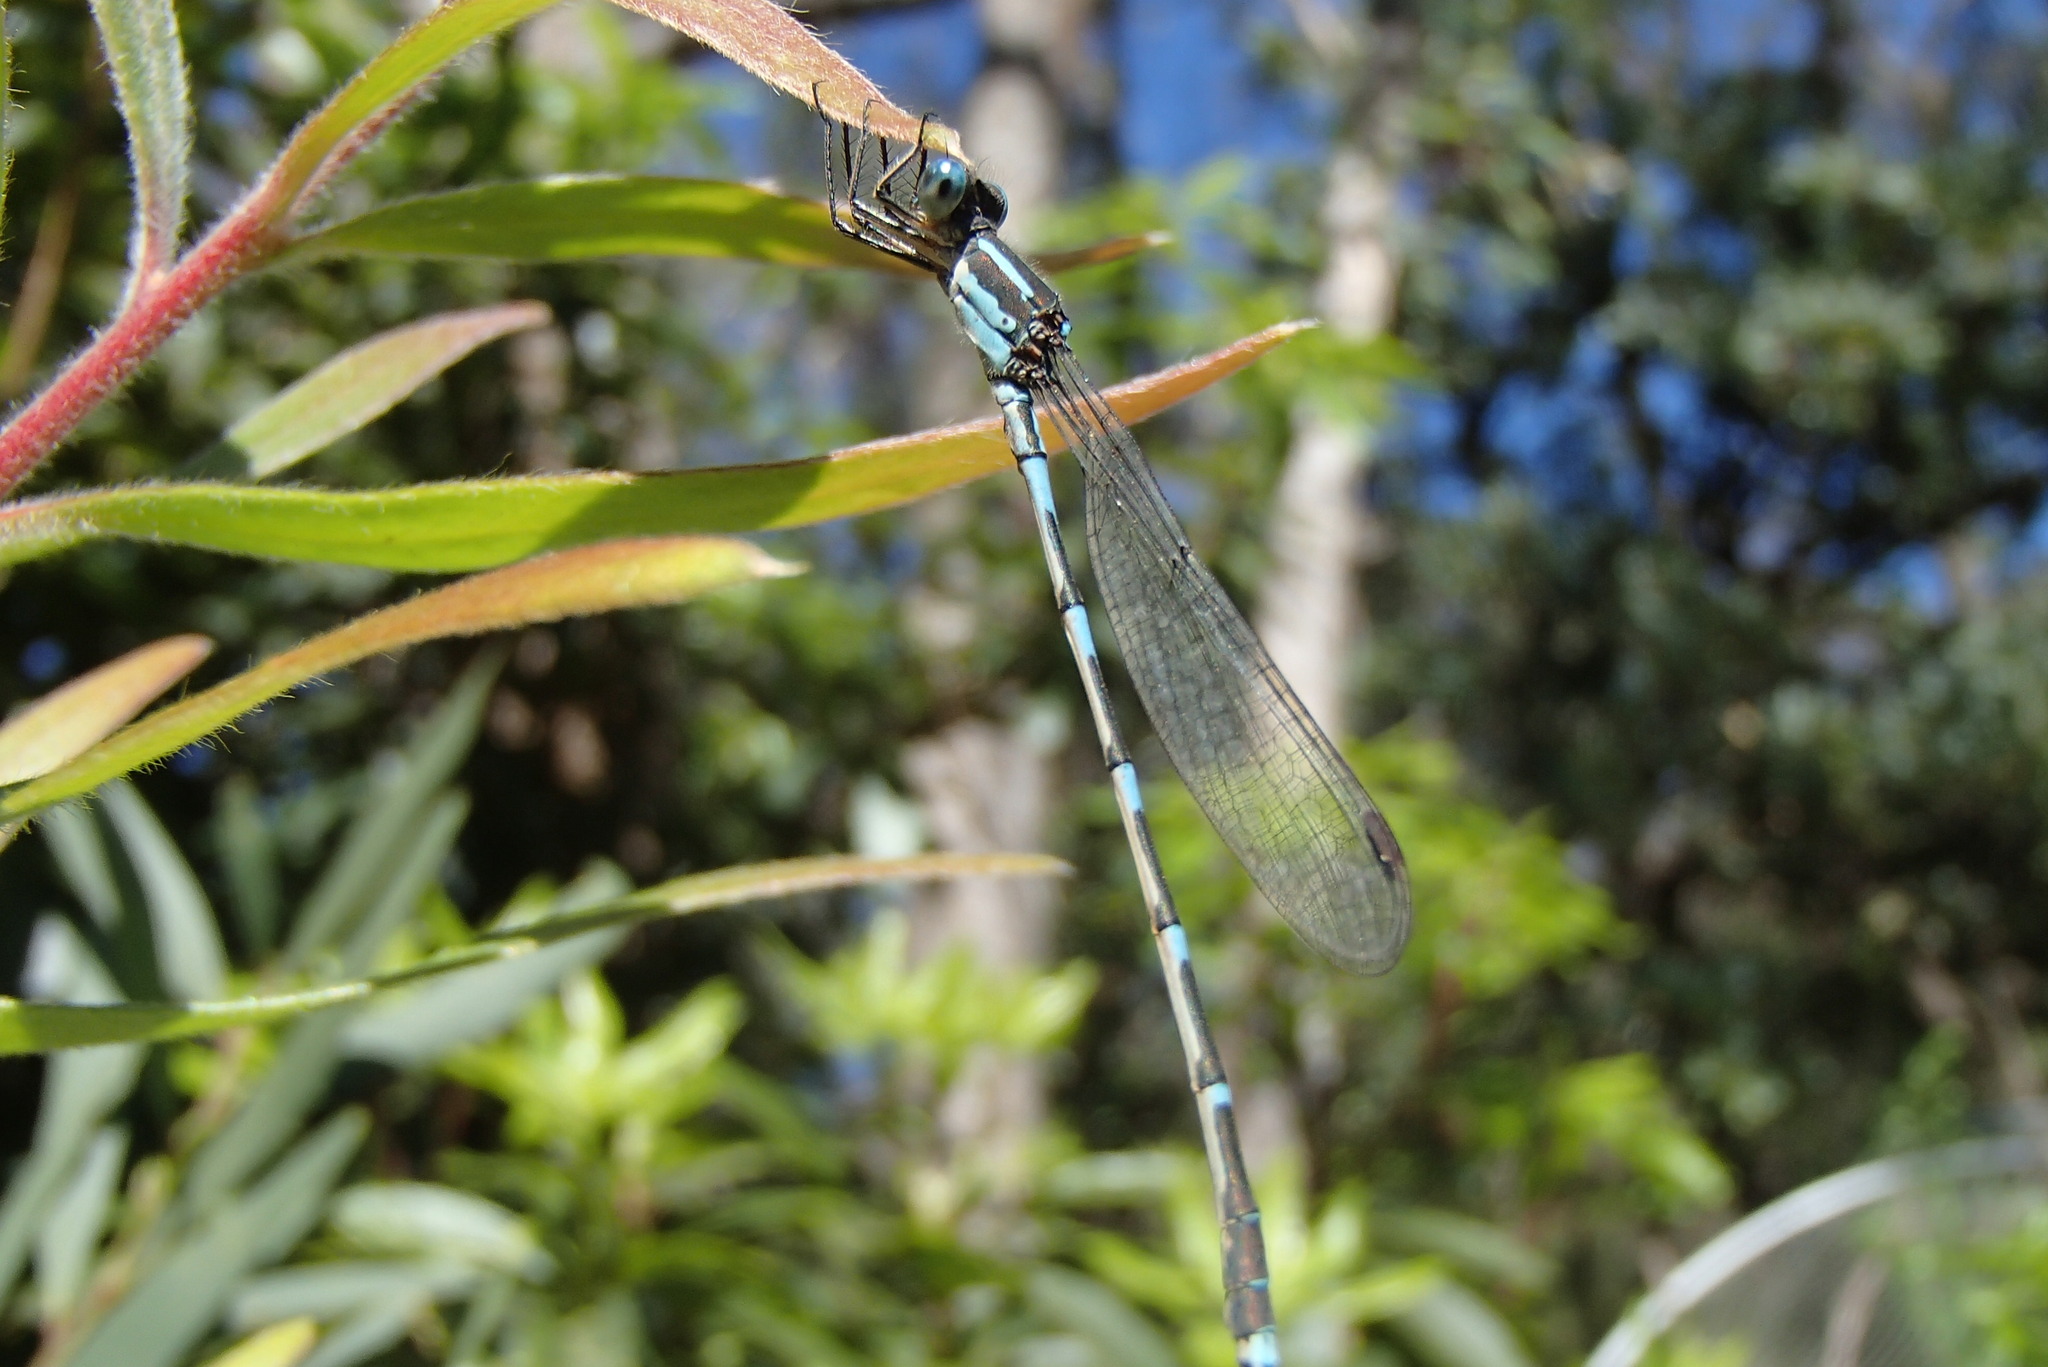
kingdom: Animalia
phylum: Arthropoda
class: Insecta
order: Odonata
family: Lestidae
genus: Austrolestes
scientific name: Austrolestes leda
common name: Wandering ringtail
